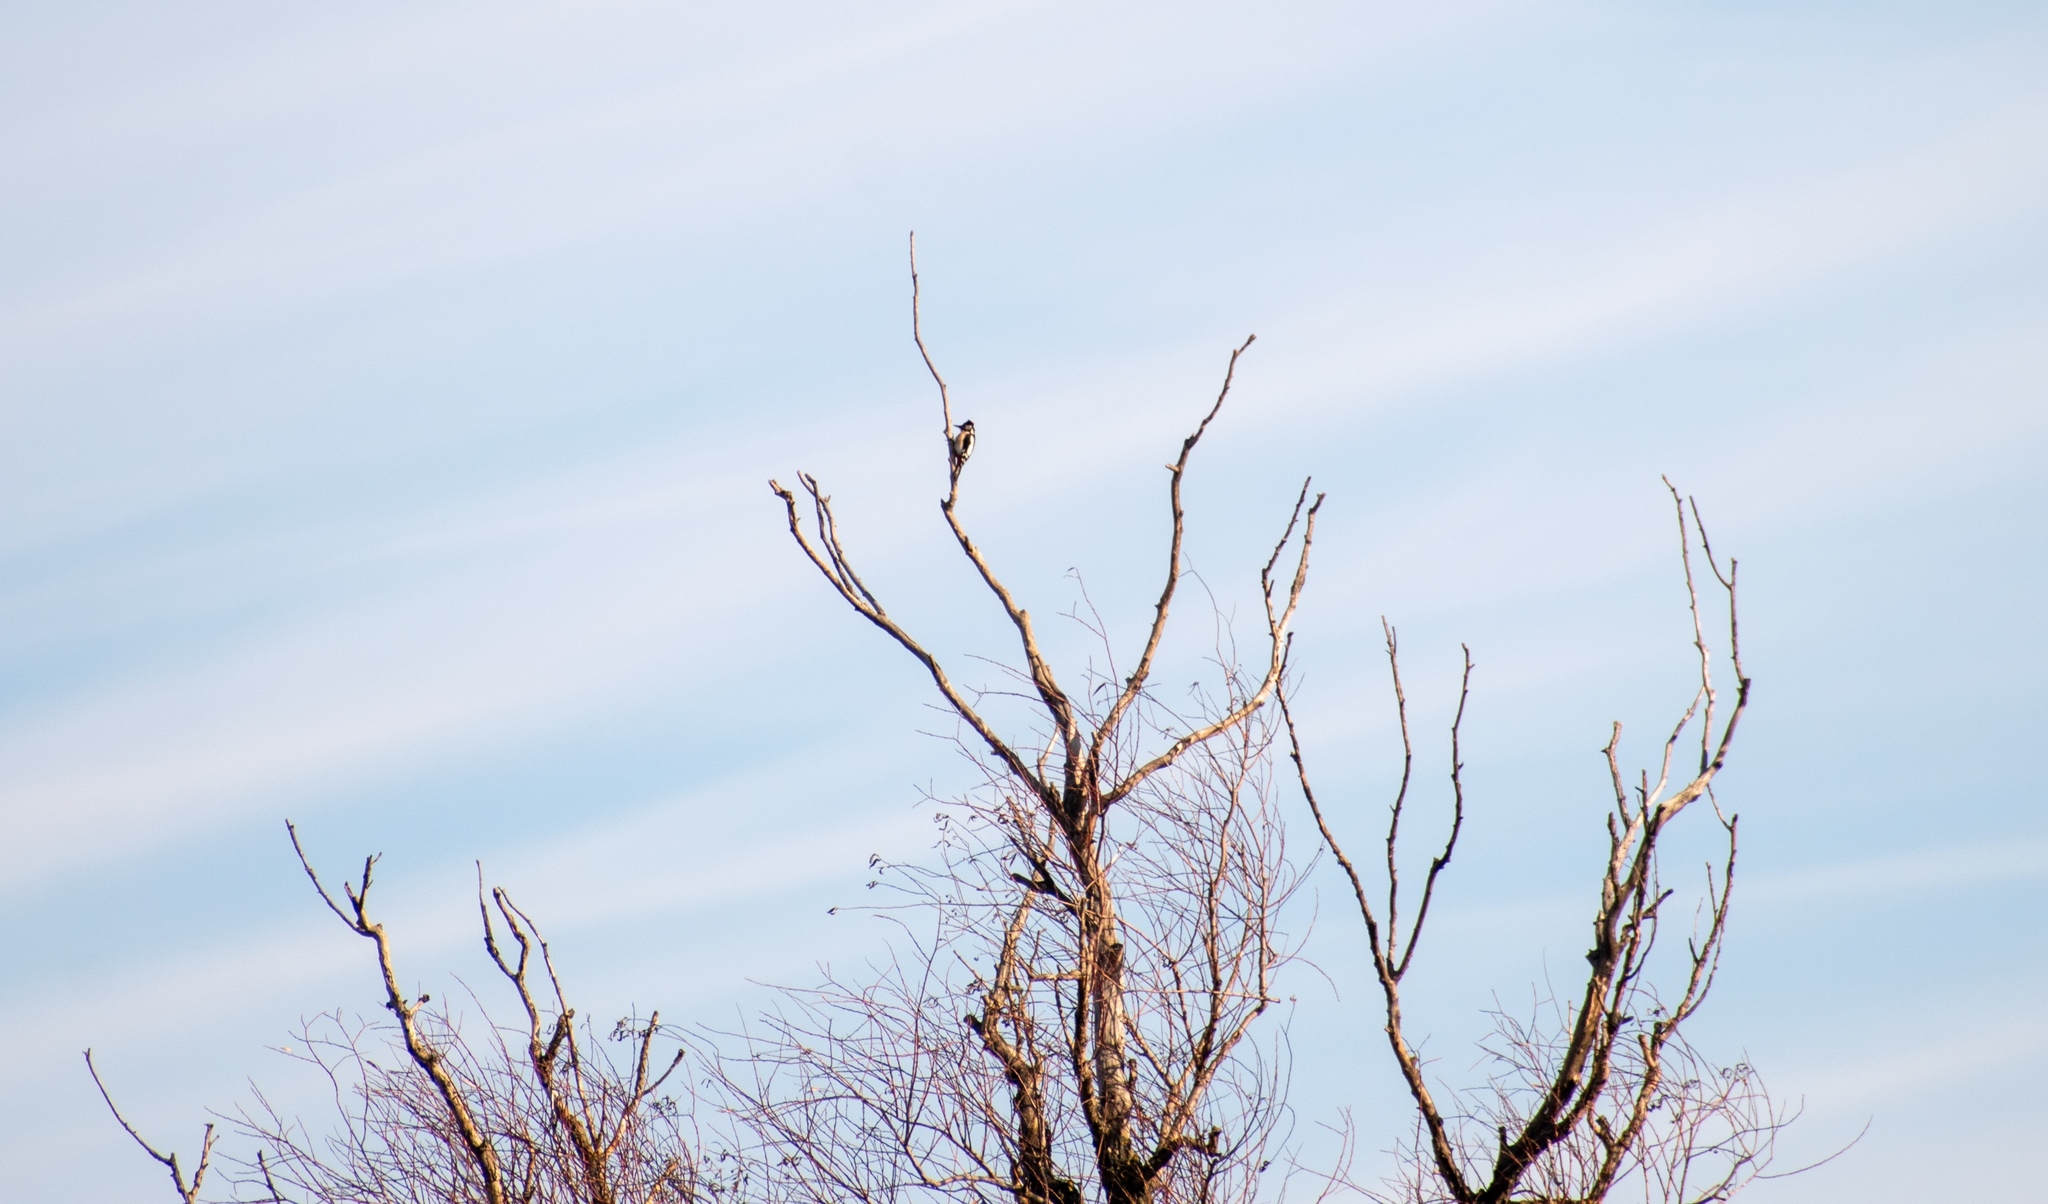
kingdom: Animalia
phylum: Chordata
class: Aves
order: Piciformes
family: Picidae
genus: Dendrocopos
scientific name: Dendrocopos major
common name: Great spotted woodpecker
